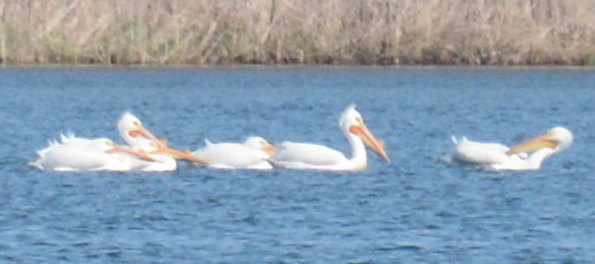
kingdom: Animalia
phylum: Chordata
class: Aves
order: Pelecaniformes
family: Pelecanidae
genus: Pelecanus
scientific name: Pelecanus erythrorhynchos
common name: American white pelican
